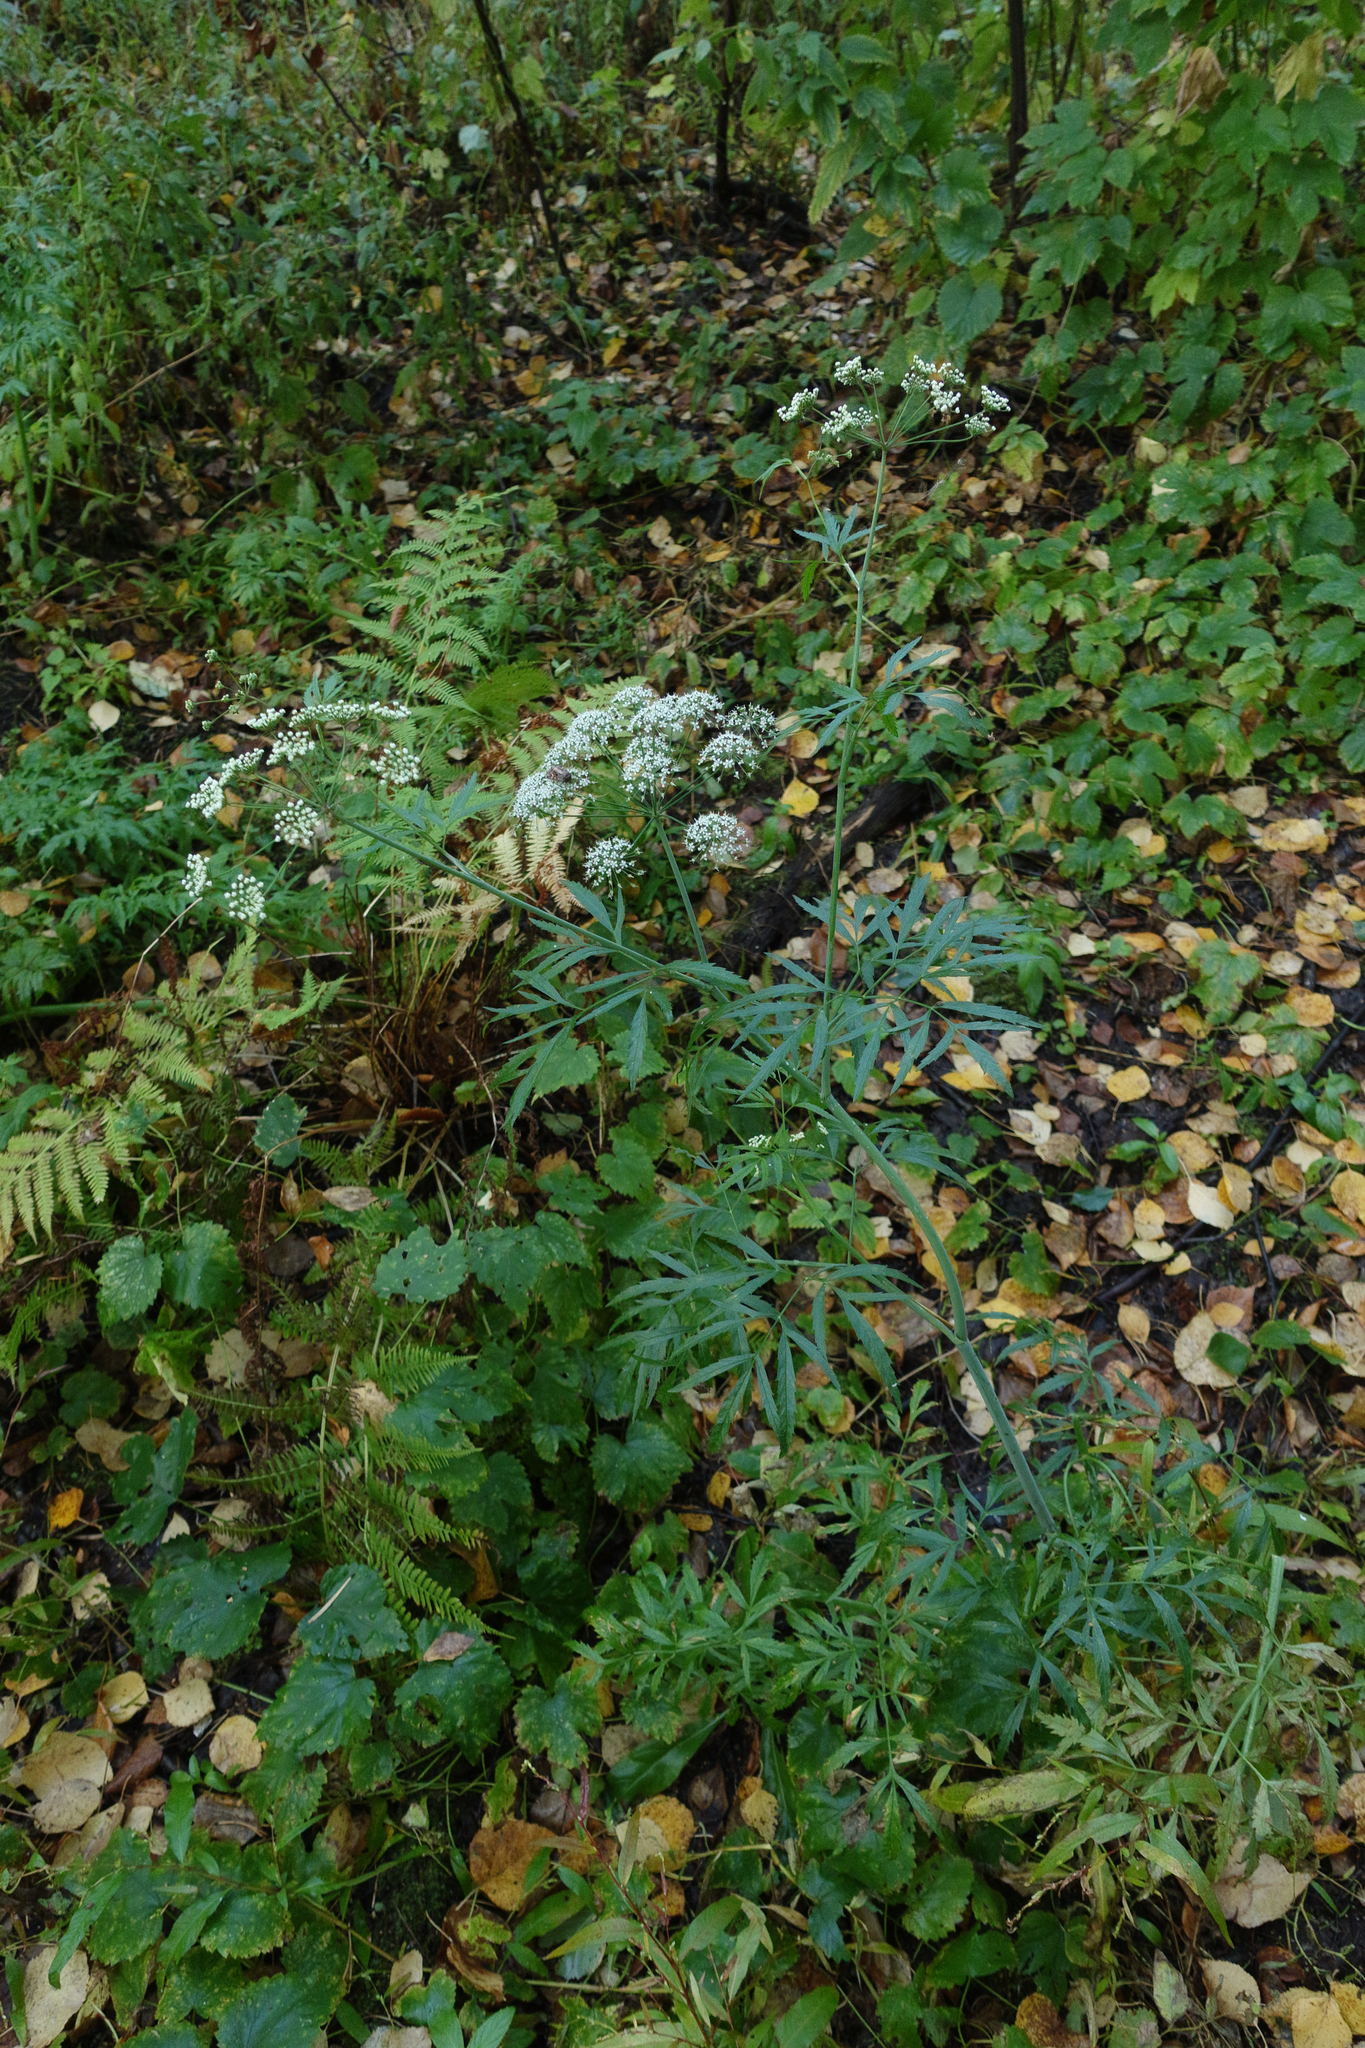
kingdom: Plantae
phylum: Tracheophyta
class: Magnoliopsida
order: Apiales
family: Apiaceae
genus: Cicuta
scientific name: Cicuta virosa
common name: Cowbane
